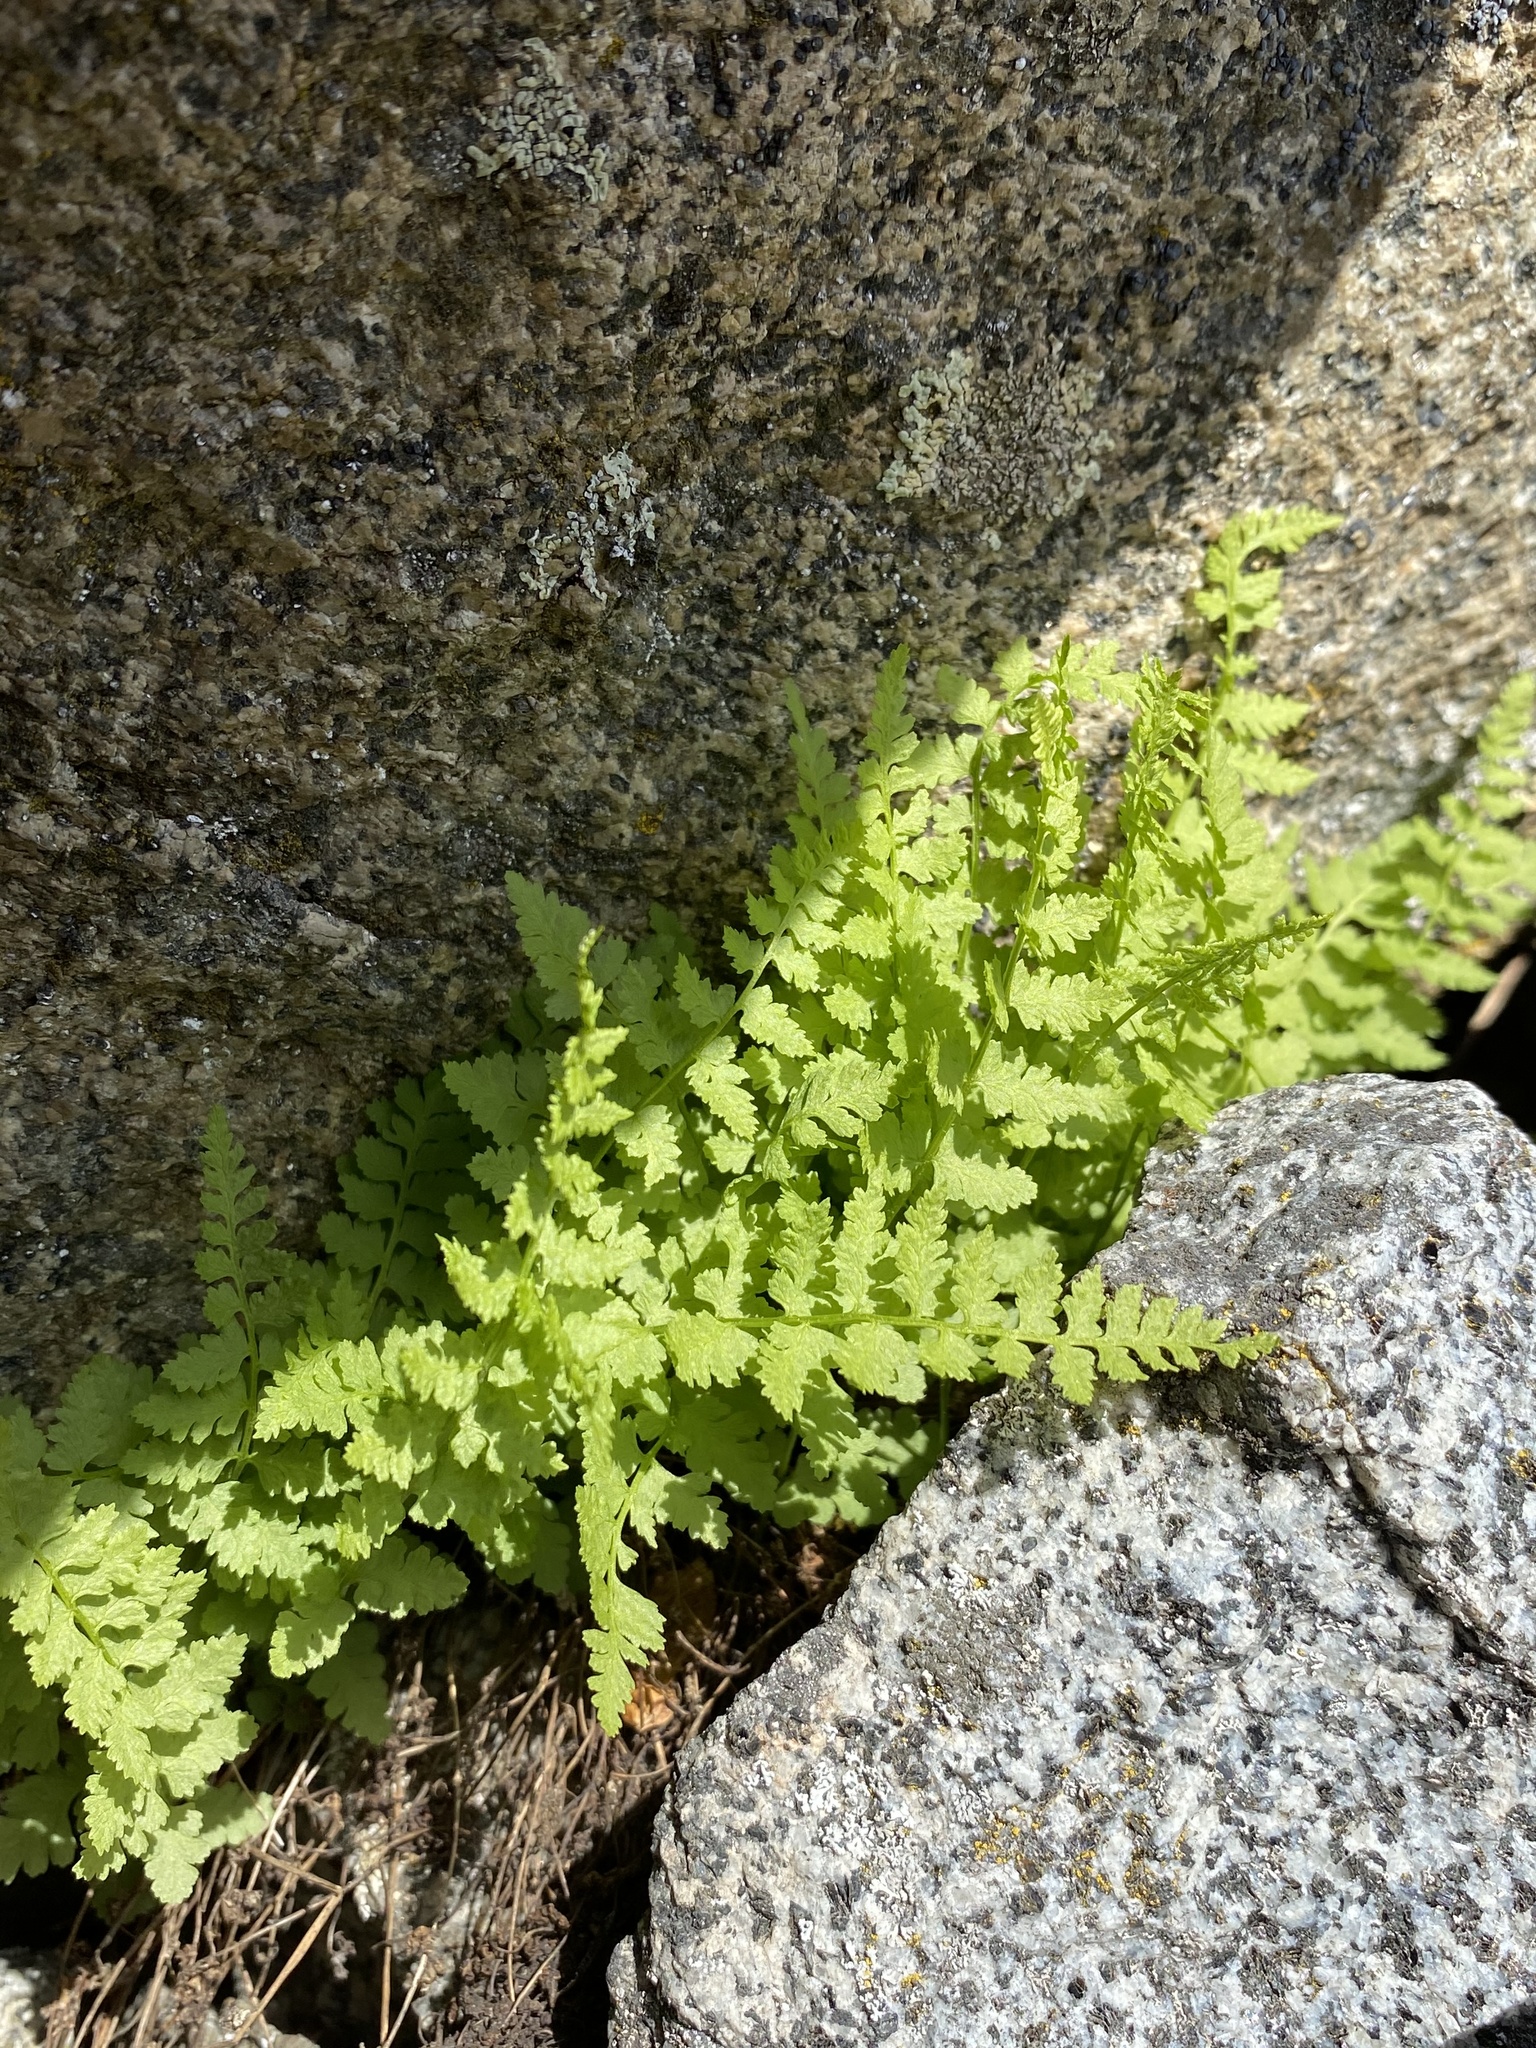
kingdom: Plantae
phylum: Tracheophyta
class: Polypodiopsida
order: Polypodiales
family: Cystopteridaceae
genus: Cystopteris
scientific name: Cystopteris fragilis
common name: Brittle bladder fern
